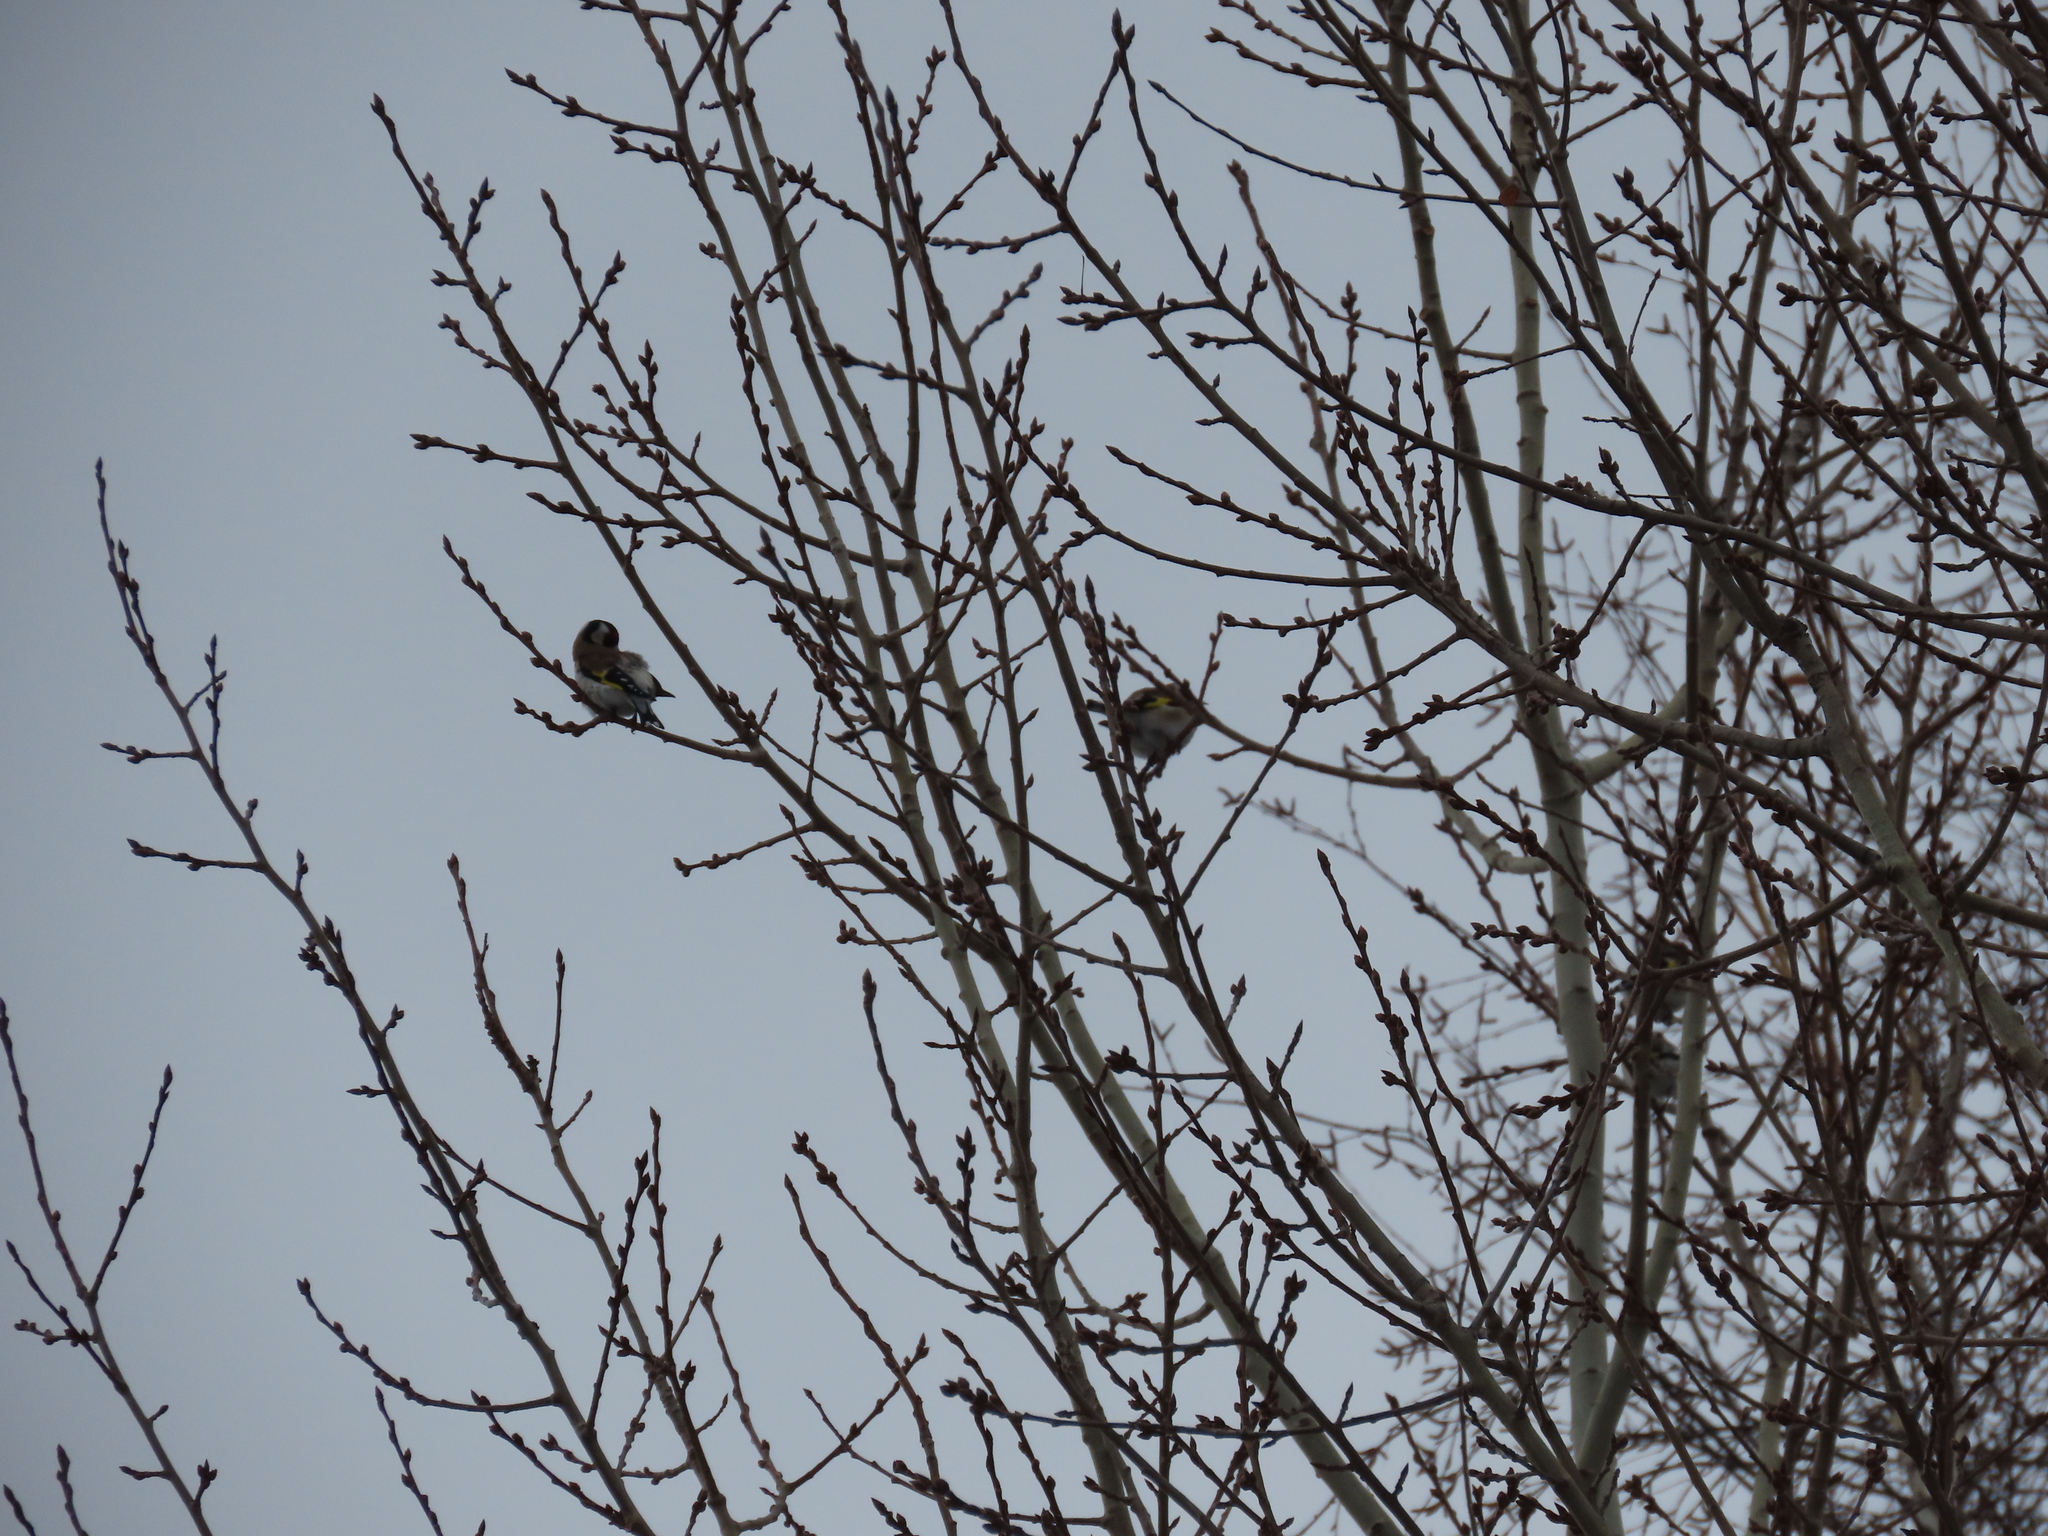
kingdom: Animalia
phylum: Chordata
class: Aves
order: Passeriformes
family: Fringillidae
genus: Carduelis
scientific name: Carduelis carduelis
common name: European goldfinch
